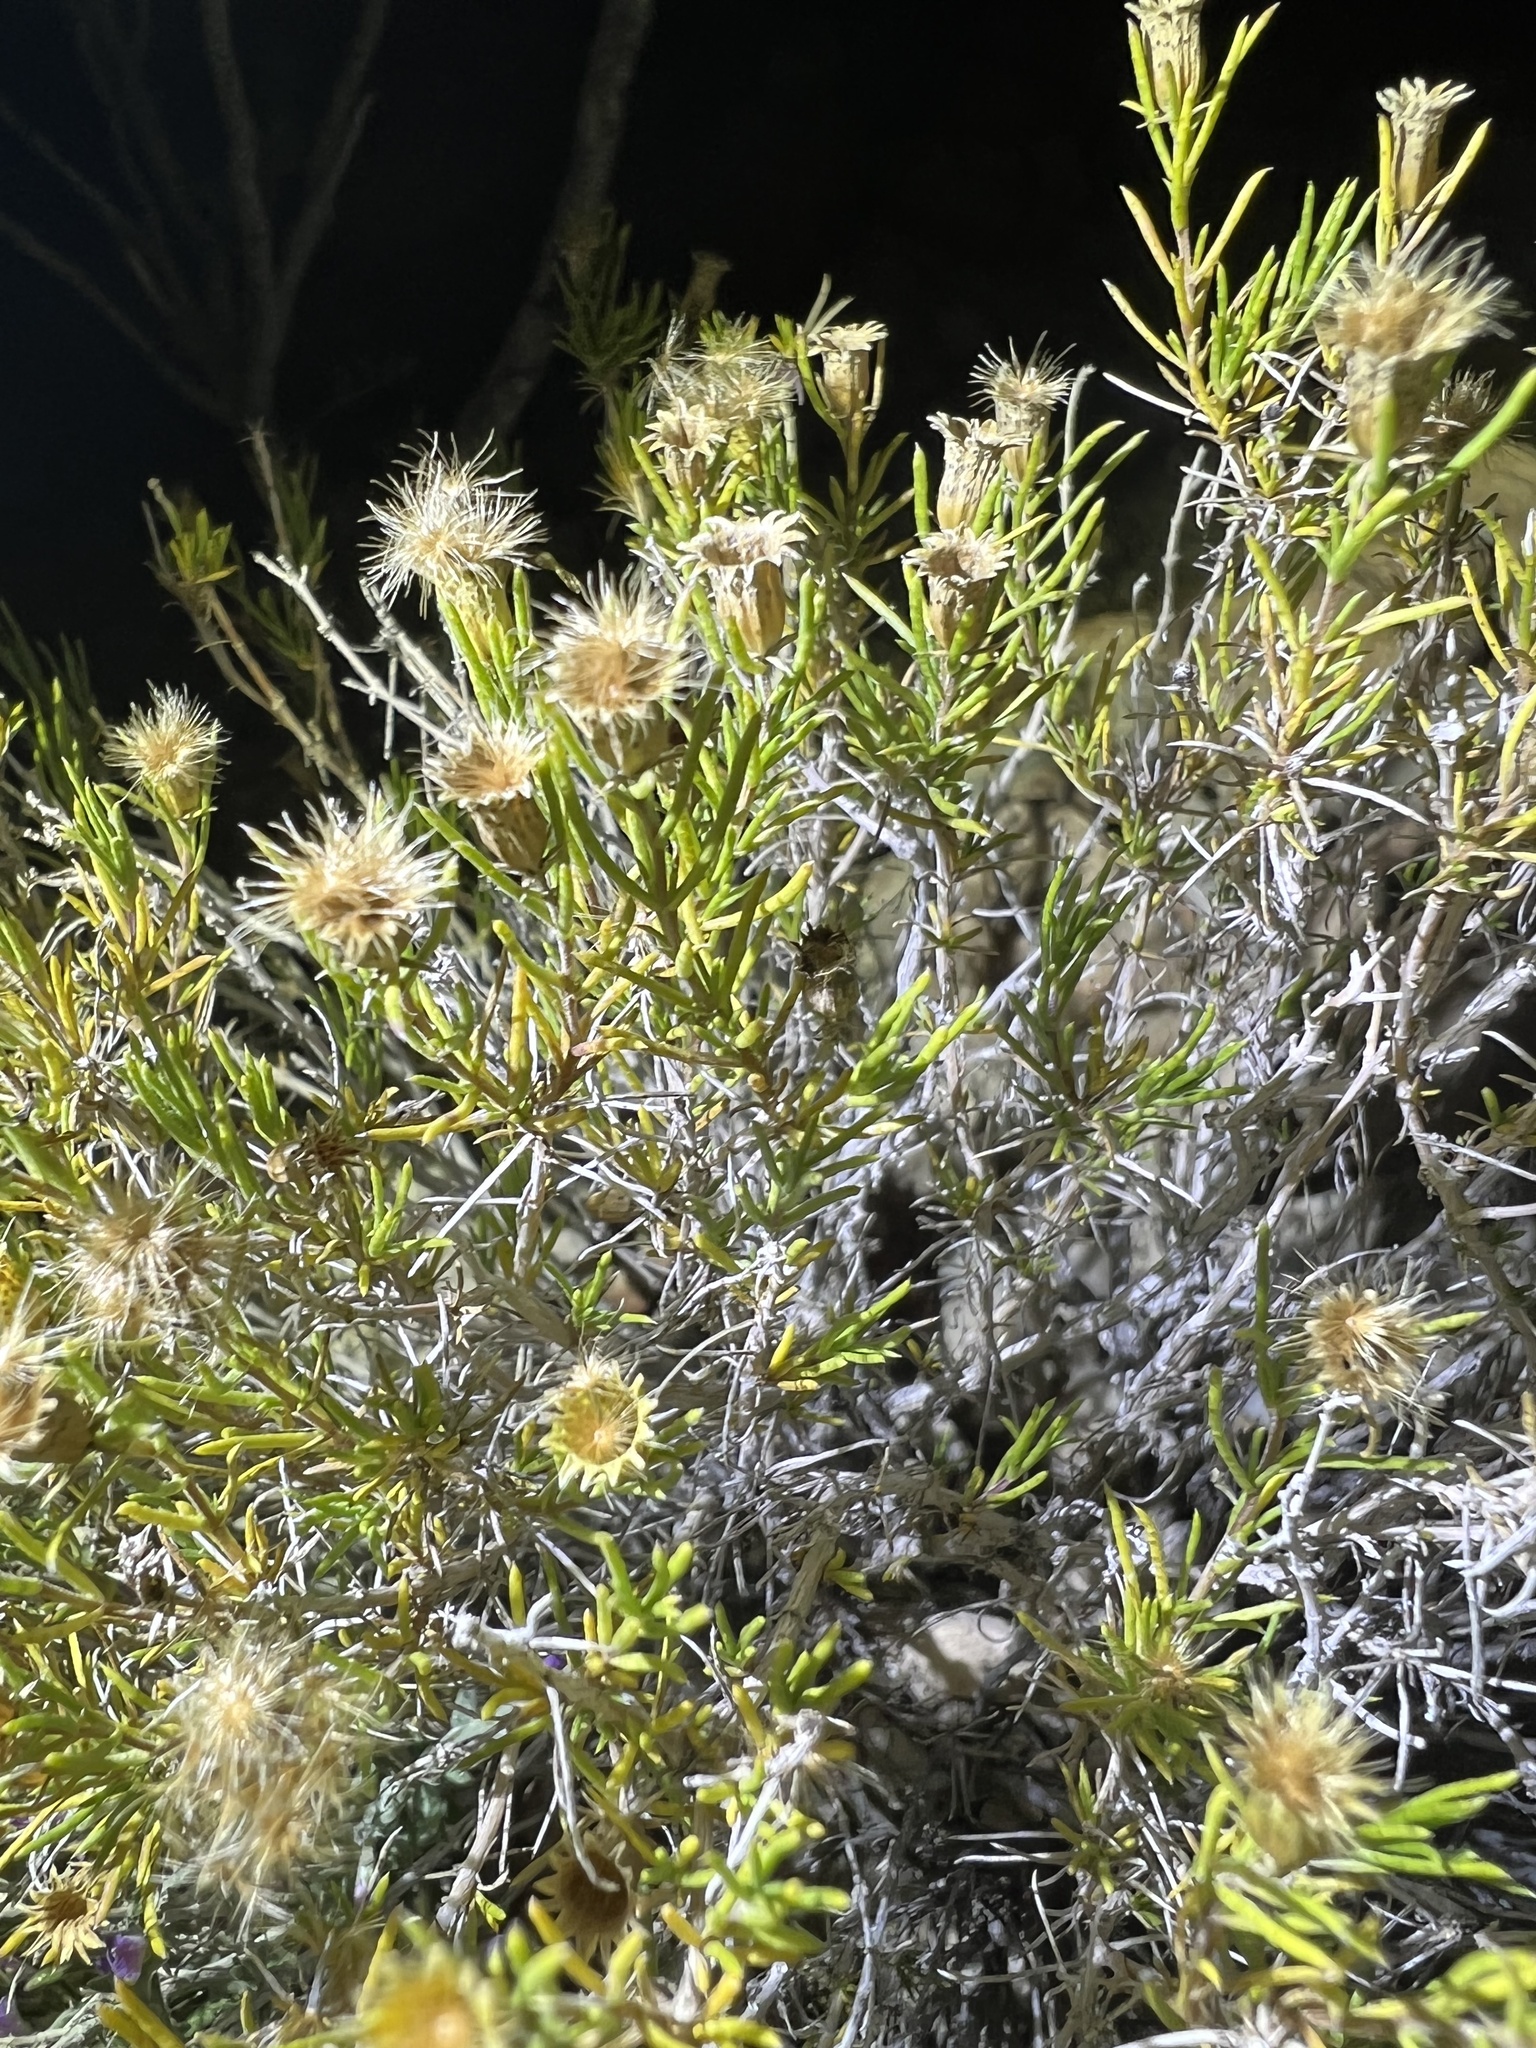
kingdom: Plantae
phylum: Tracheophyta
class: Magnoliopsida
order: Asterales
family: Asteraceae
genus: Thymophylla
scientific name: Thymophylla acerosa
